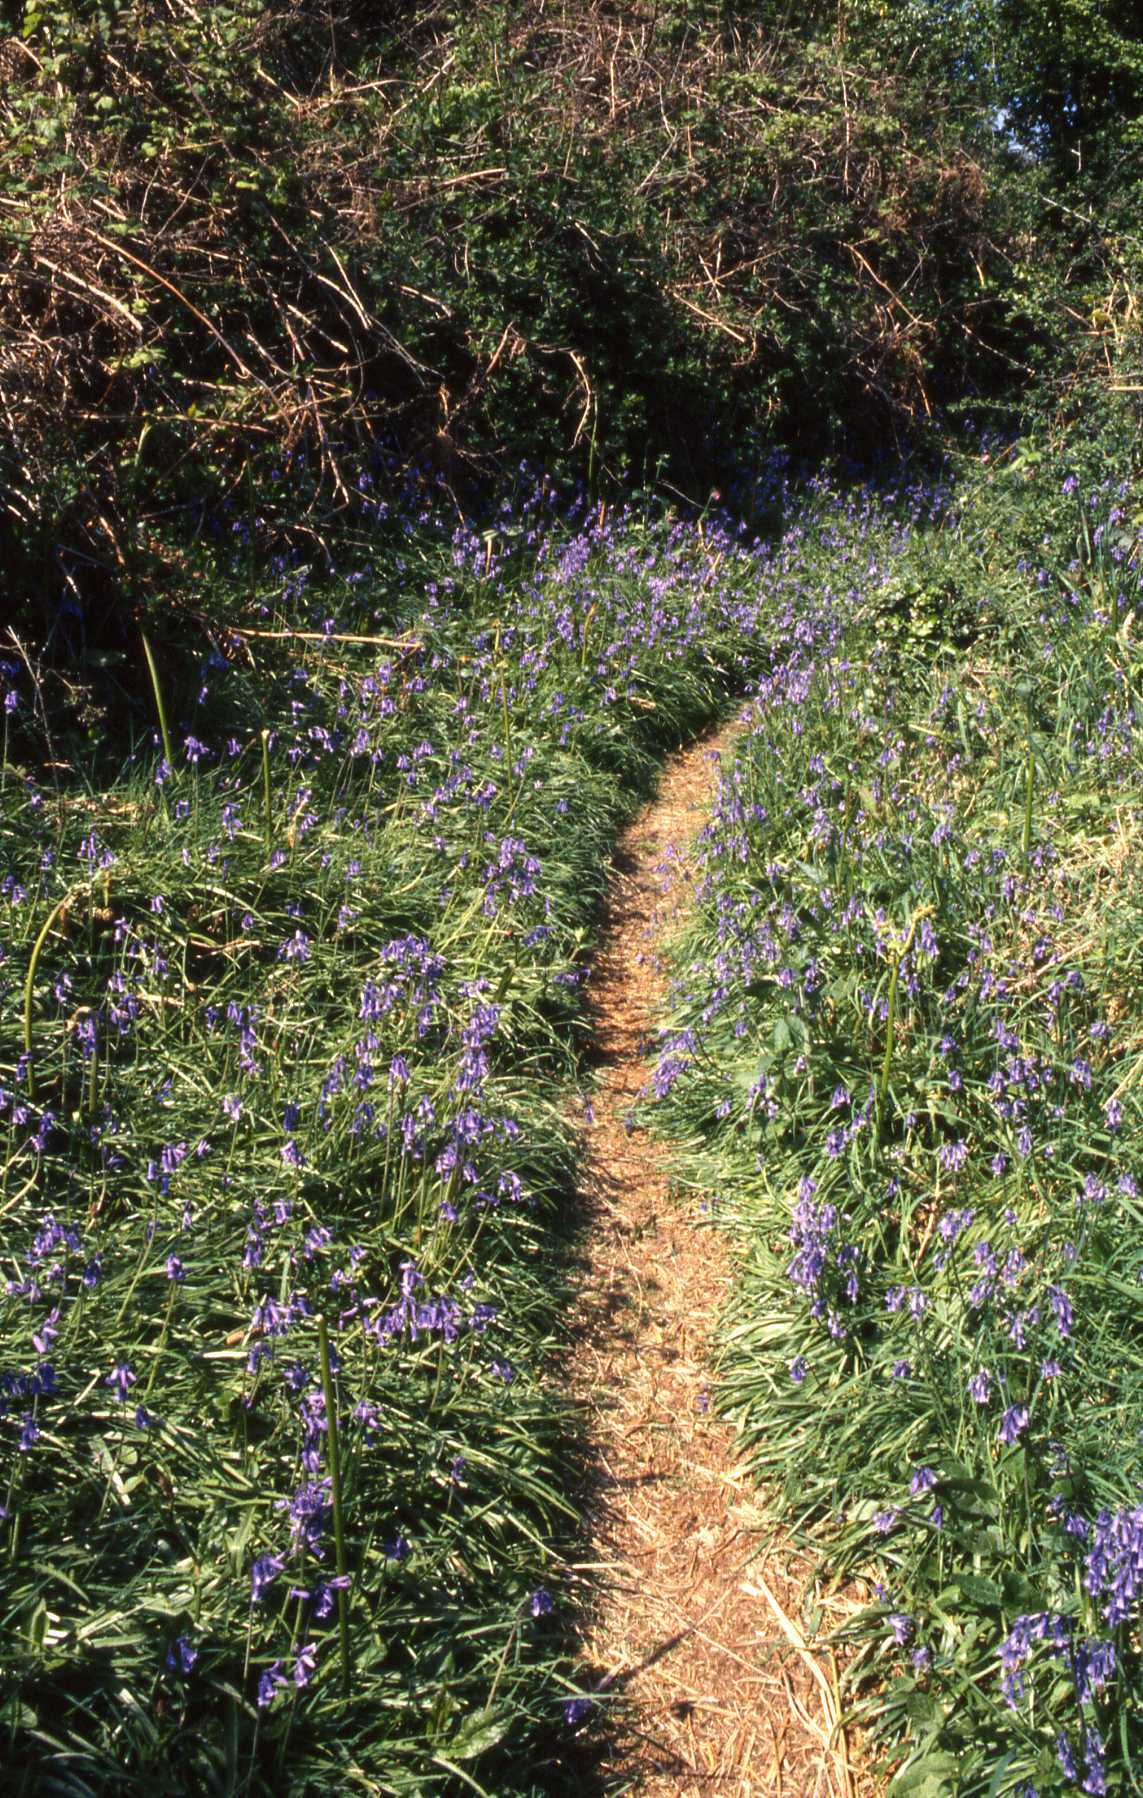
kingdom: Plantae
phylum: Tracheophyta
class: Liliopsida
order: Asparagales
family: Asparagaceae
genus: Hyacinthoides
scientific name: Hyacinthoides non-scripta
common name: Bluebell
